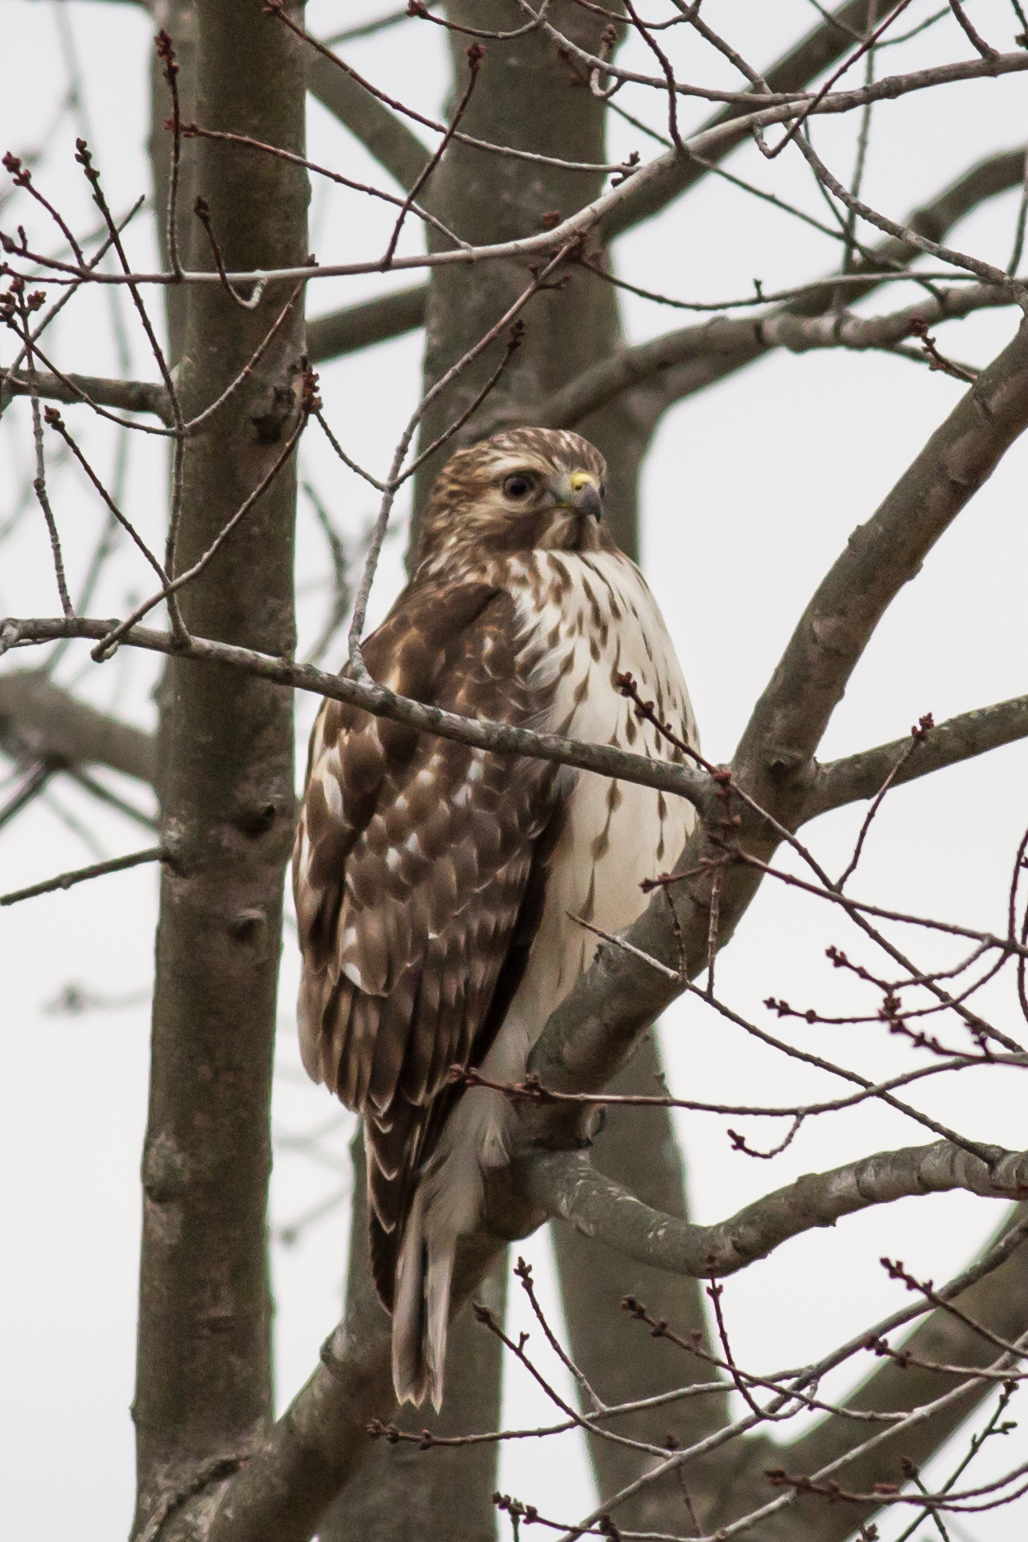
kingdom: Animalia
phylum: Chordata
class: Aves
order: Accipitriformes
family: Accipitridae
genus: Buteo
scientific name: Buteo lineatus
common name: Red-shouldered hawk
